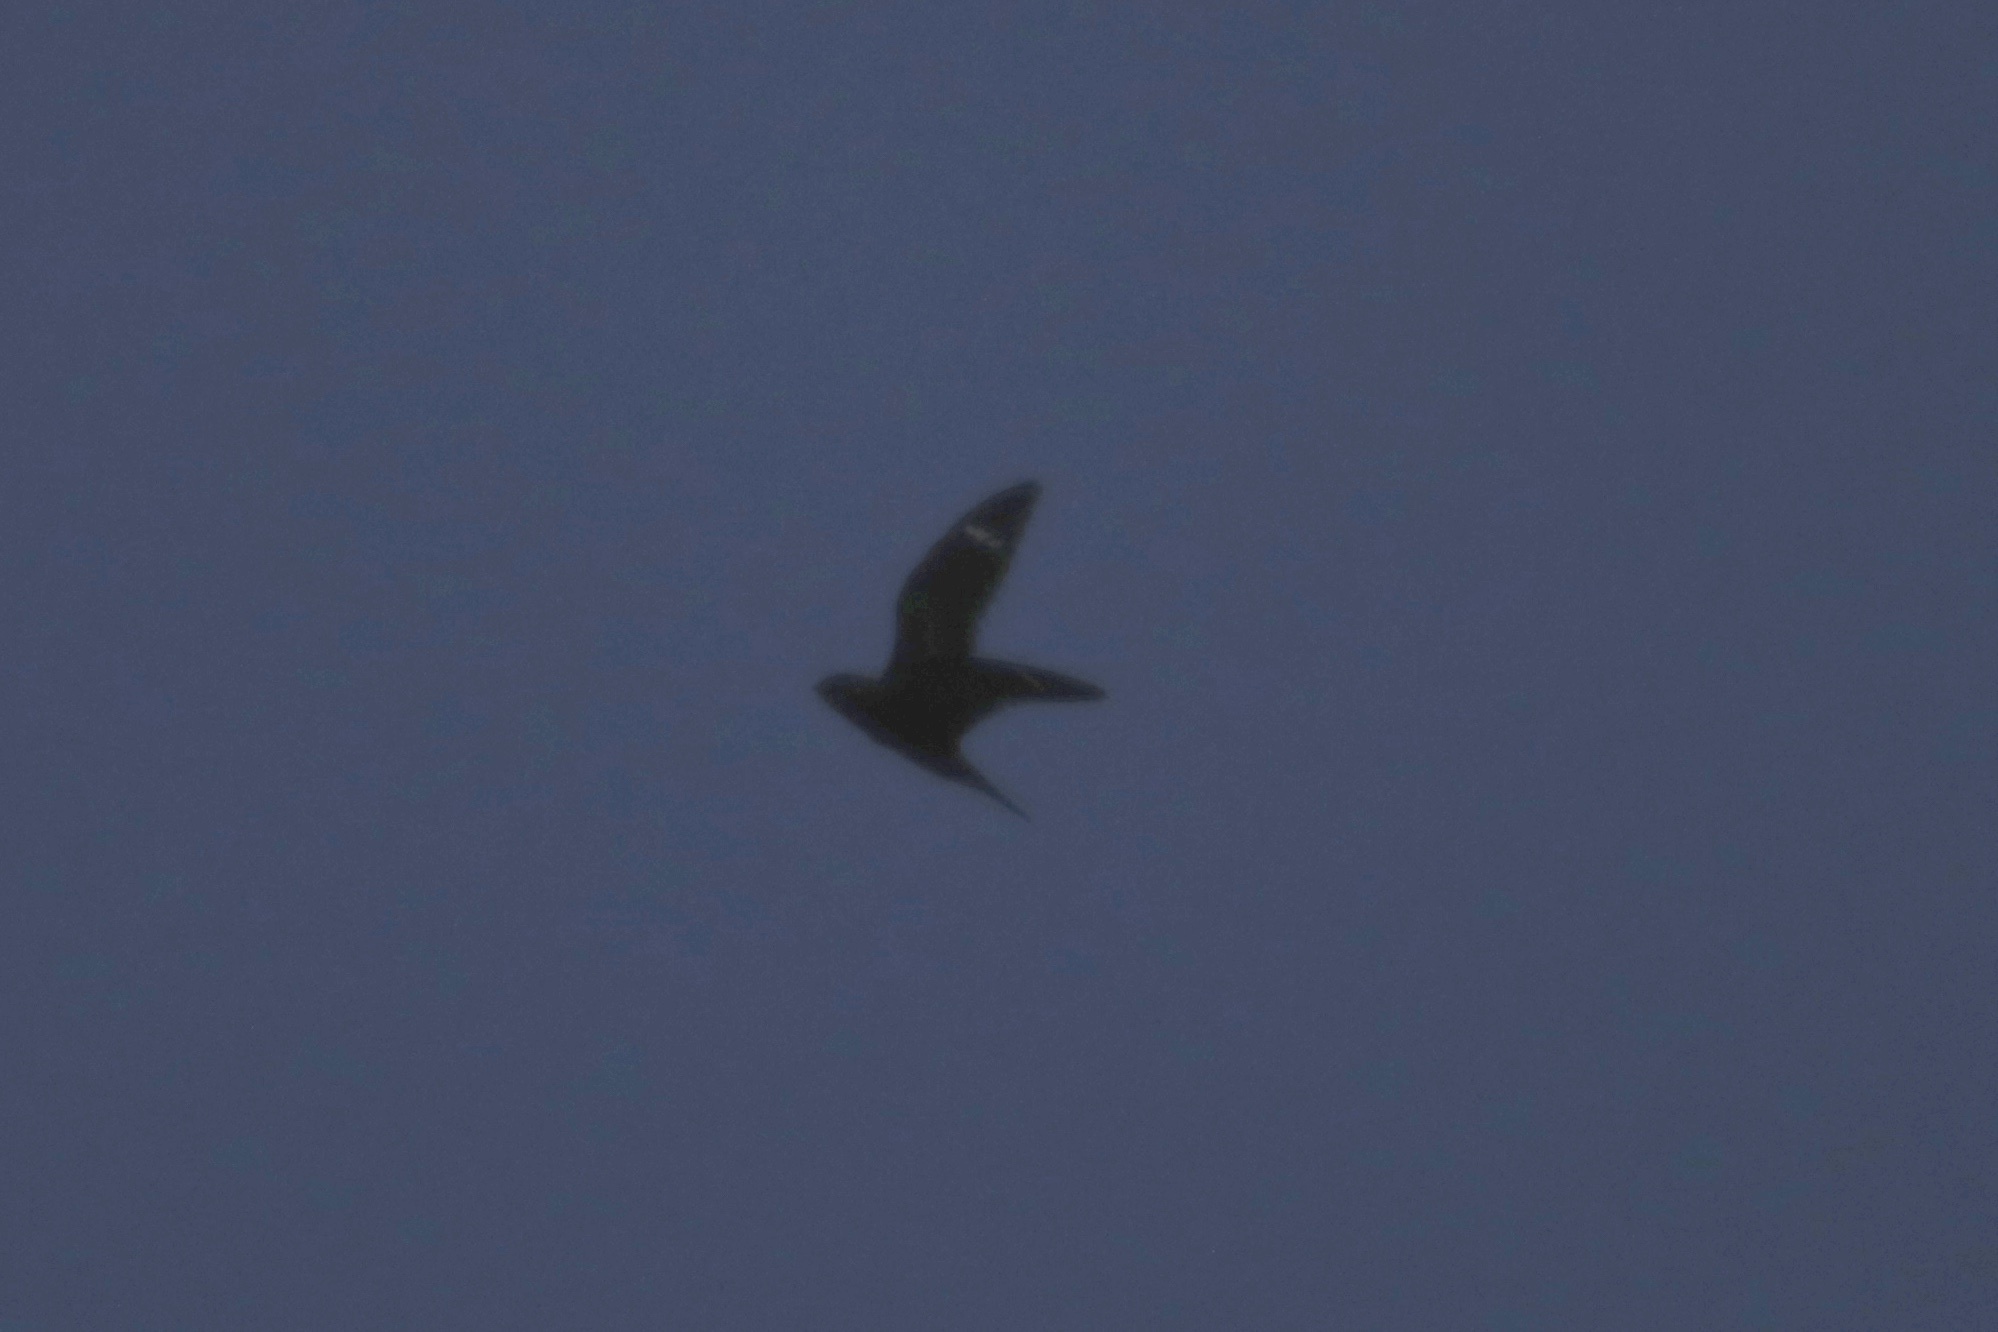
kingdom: Animalia
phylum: Chordata
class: Aves
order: Caprimulgiformes
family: Caprimulgidae
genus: Chordeiles
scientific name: Chordeiles minor
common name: Common nighthawk
